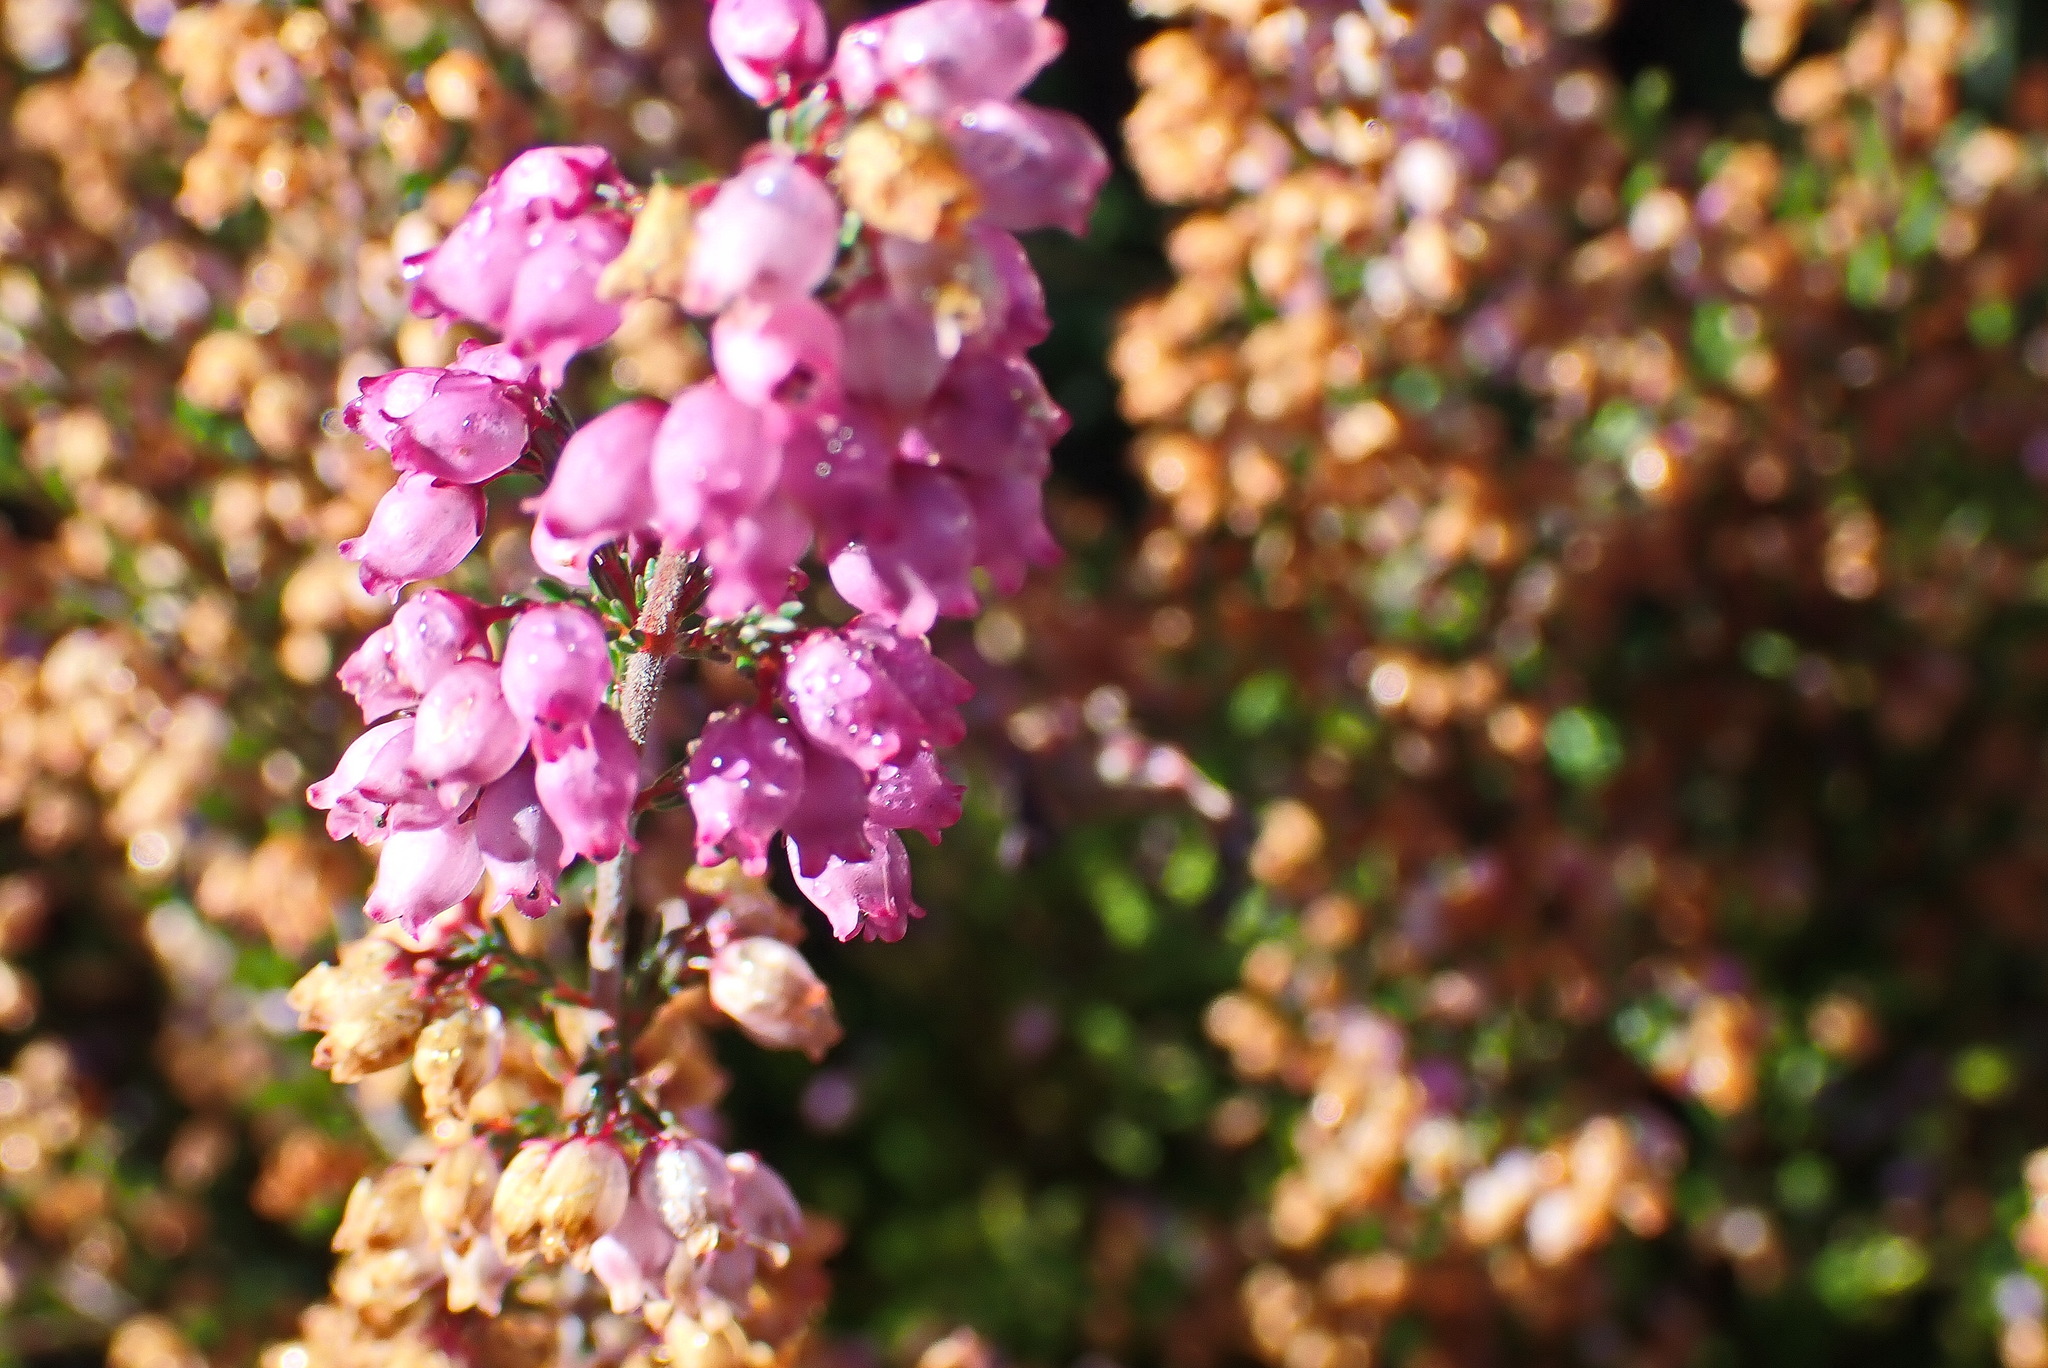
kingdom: Plantae
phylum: Tracheophyta
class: Magnoliopsida
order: Ericales
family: Ericaceae
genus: Erica
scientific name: Erica gracilis
